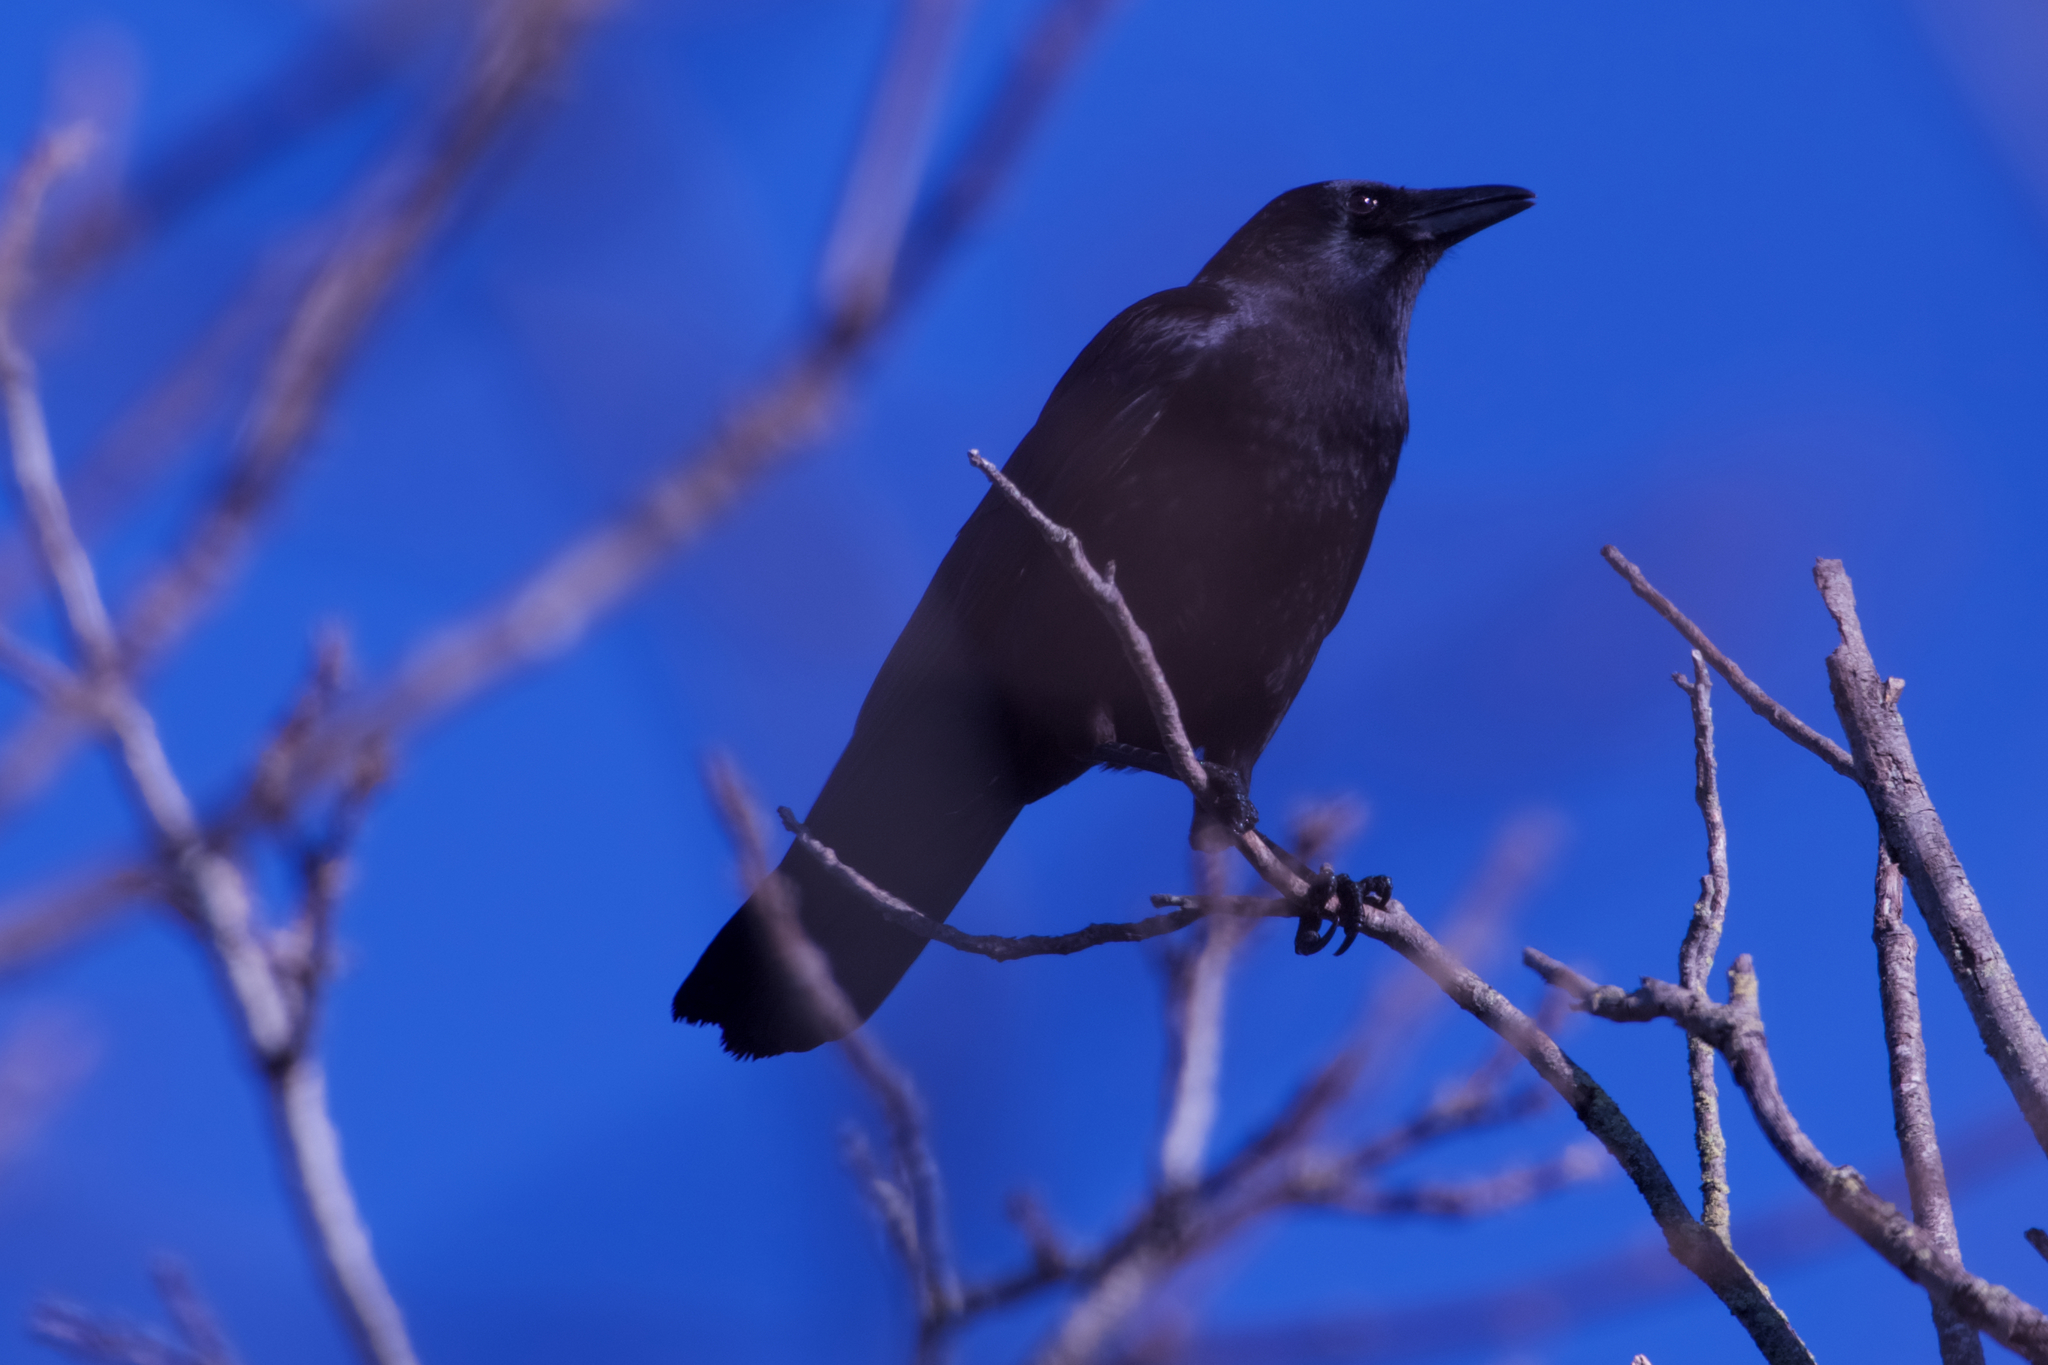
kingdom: Animalia
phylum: Chordata
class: Aves
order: Passeriformes
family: Corvidae
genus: Corvus
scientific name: Corvus brachyrhynchos
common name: American crow
